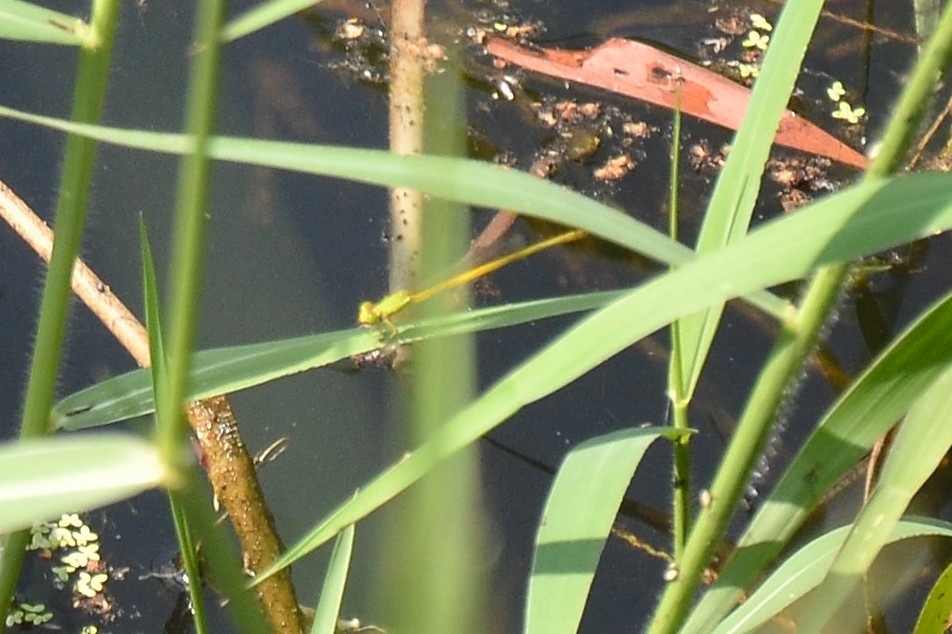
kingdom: Animalia
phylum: Arthropoda
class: Insecta
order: Odonata
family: Coenagrionidae
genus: Ceriagrion
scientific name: Ceriagrion coromandelianum
